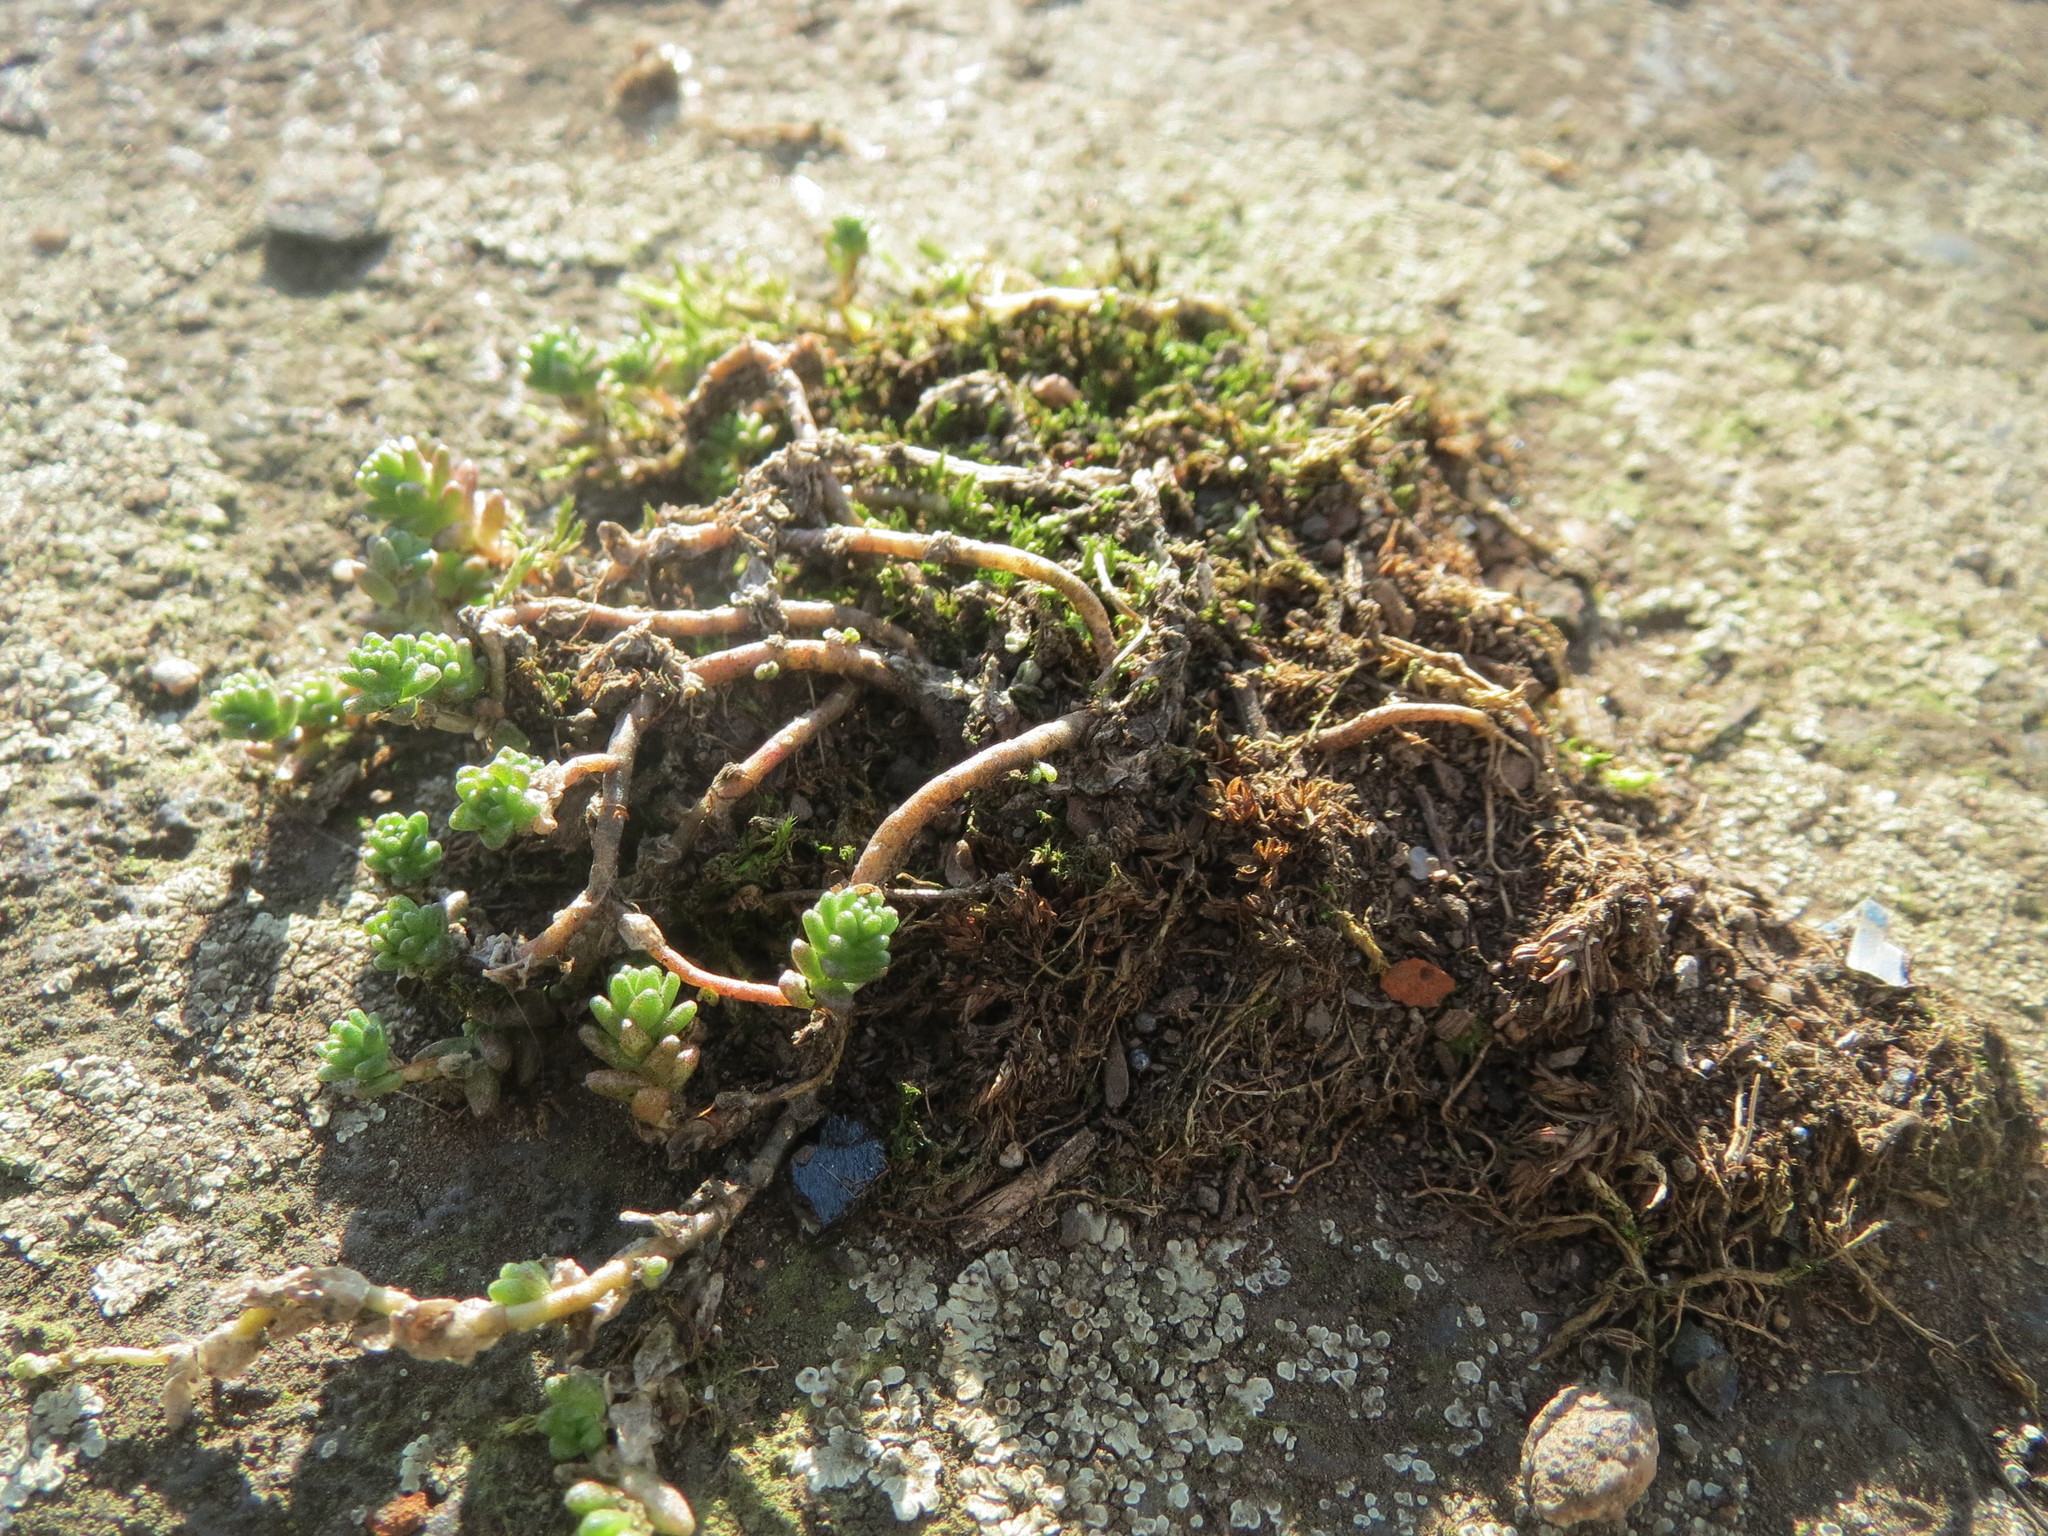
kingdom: Plantae
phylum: Tracheophyta
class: Magnoliopsida
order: Saxifragales
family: Crassulaceae
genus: Sedum
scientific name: Sedum acre
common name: Biting stonecrop
